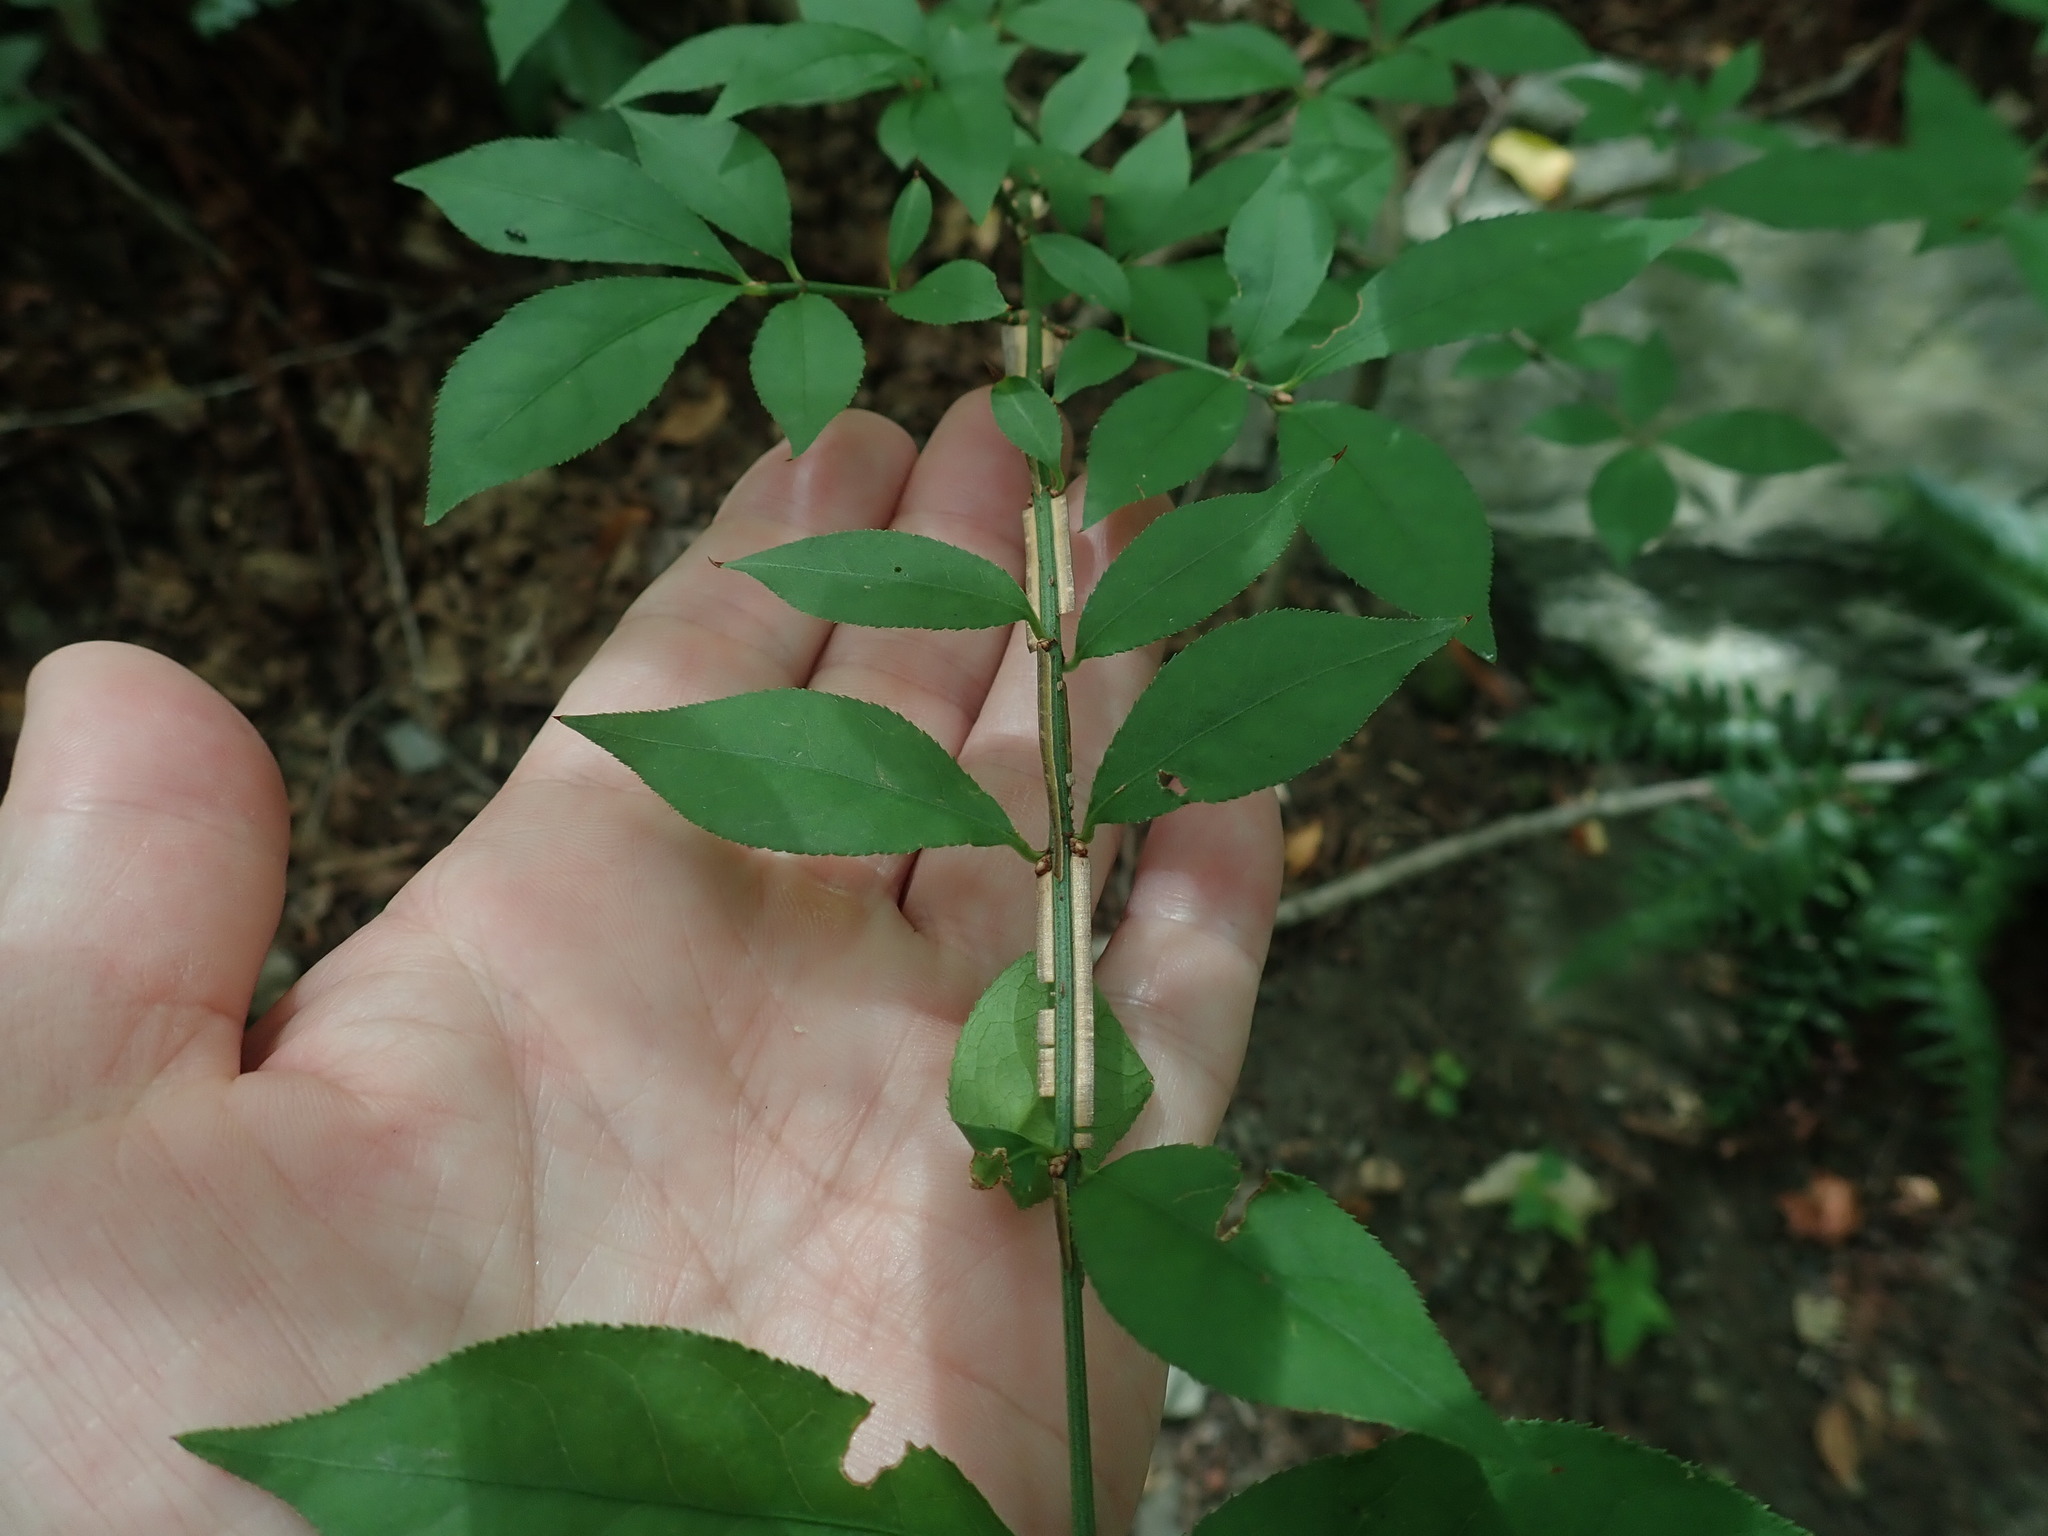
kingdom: Plantae
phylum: Tracheophyta
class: Magnoliopsida
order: Celastrales
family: Celastraceae
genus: Euonymus
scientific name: Euonymus alatus
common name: Winged euonymus
